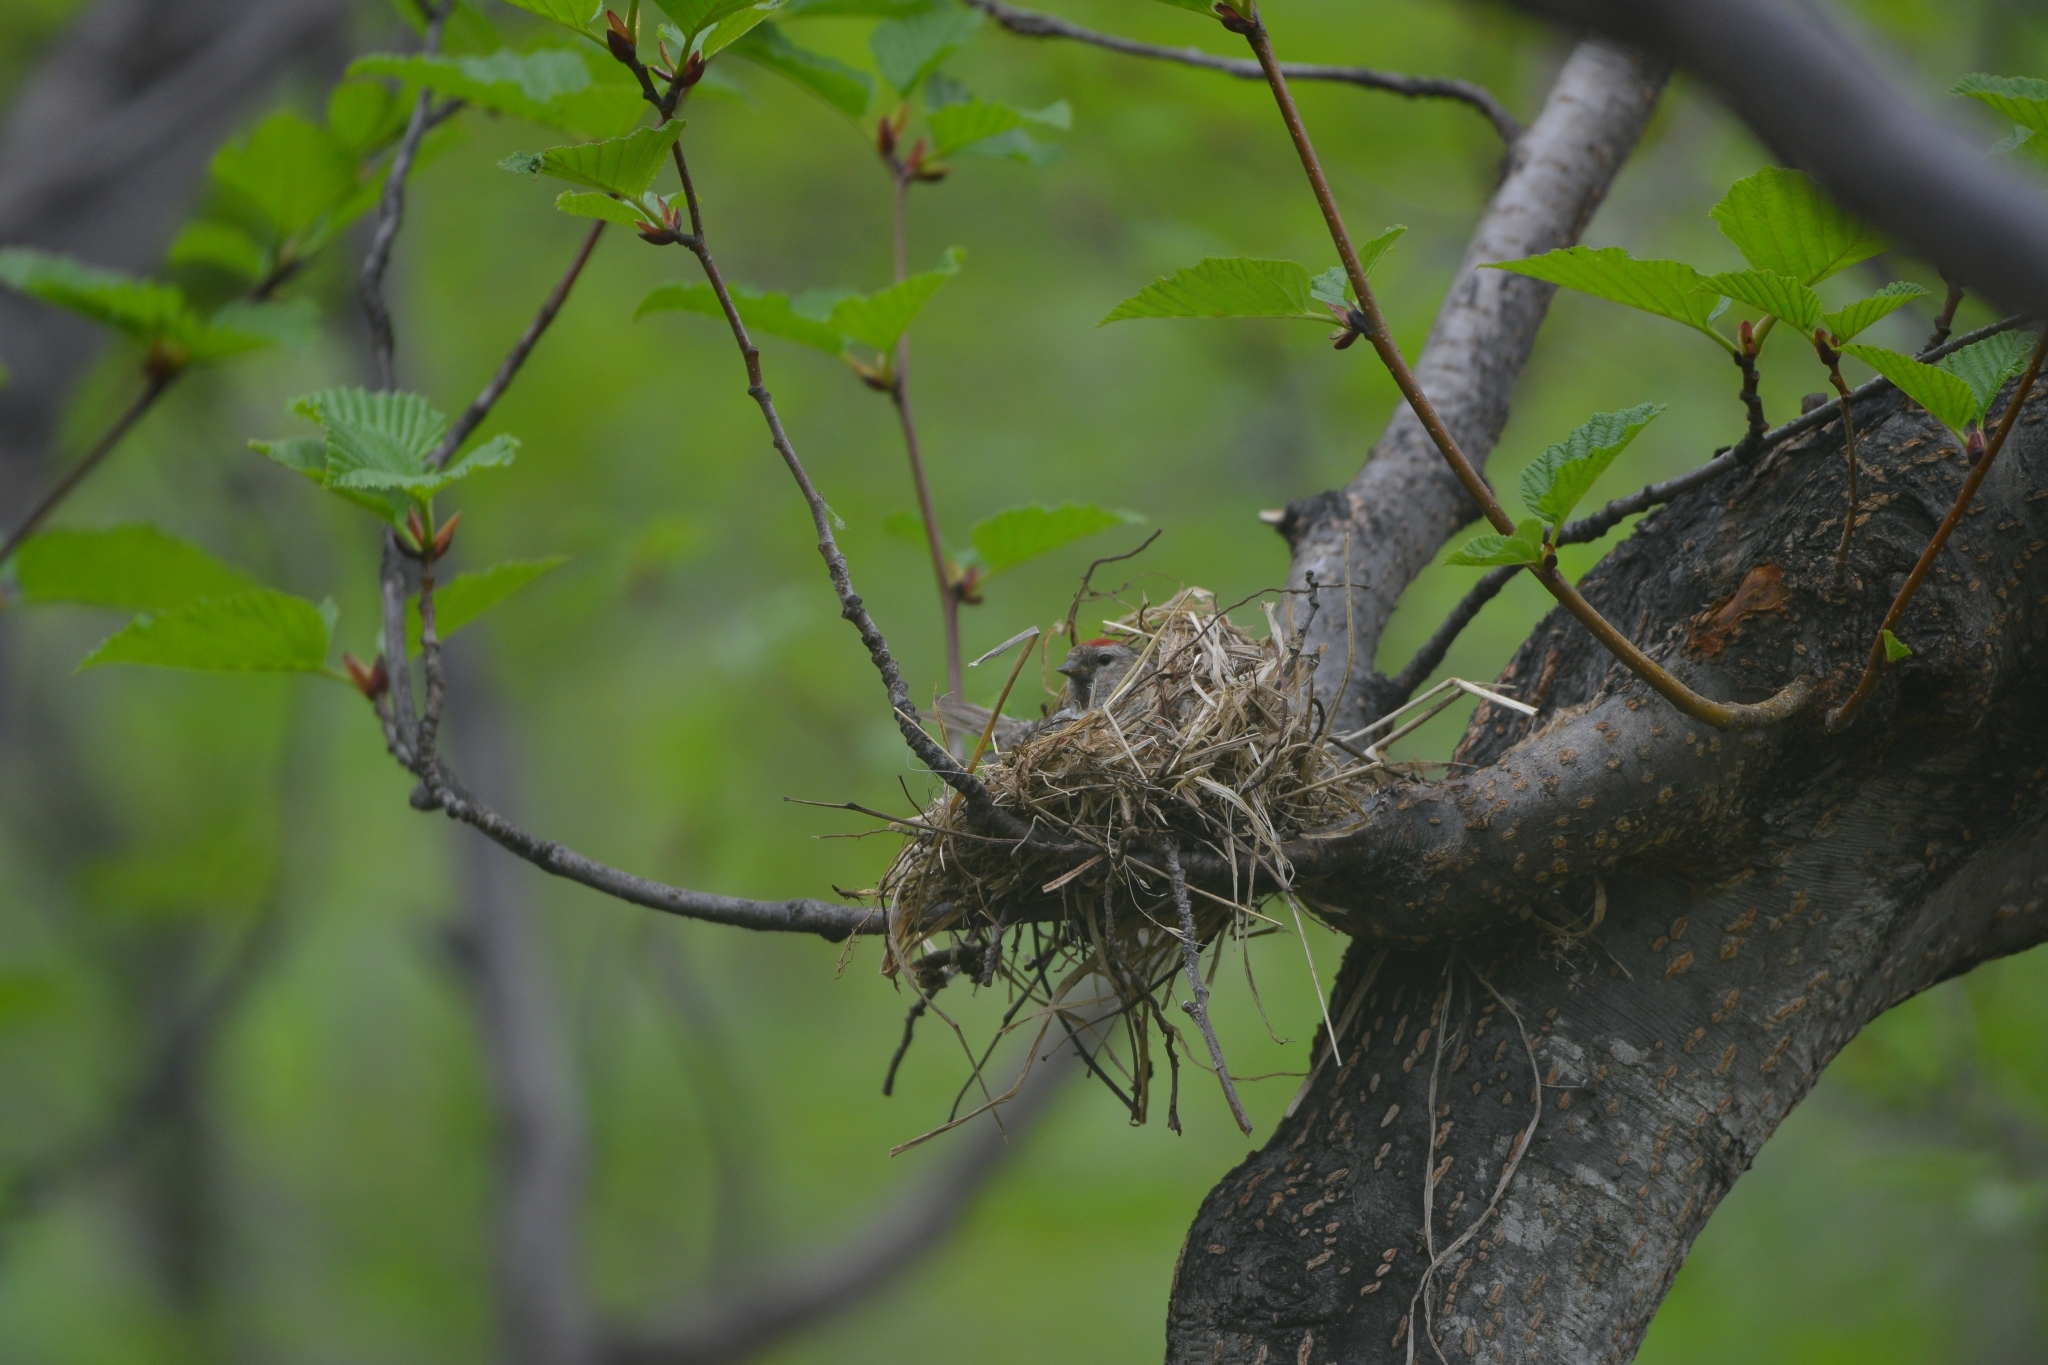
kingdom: Animalia
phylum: Chordata
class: Aves
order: Passeriformes
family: Fringillidae
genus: Acanthis
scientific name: Acanthis flammea
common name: Common redpoll
